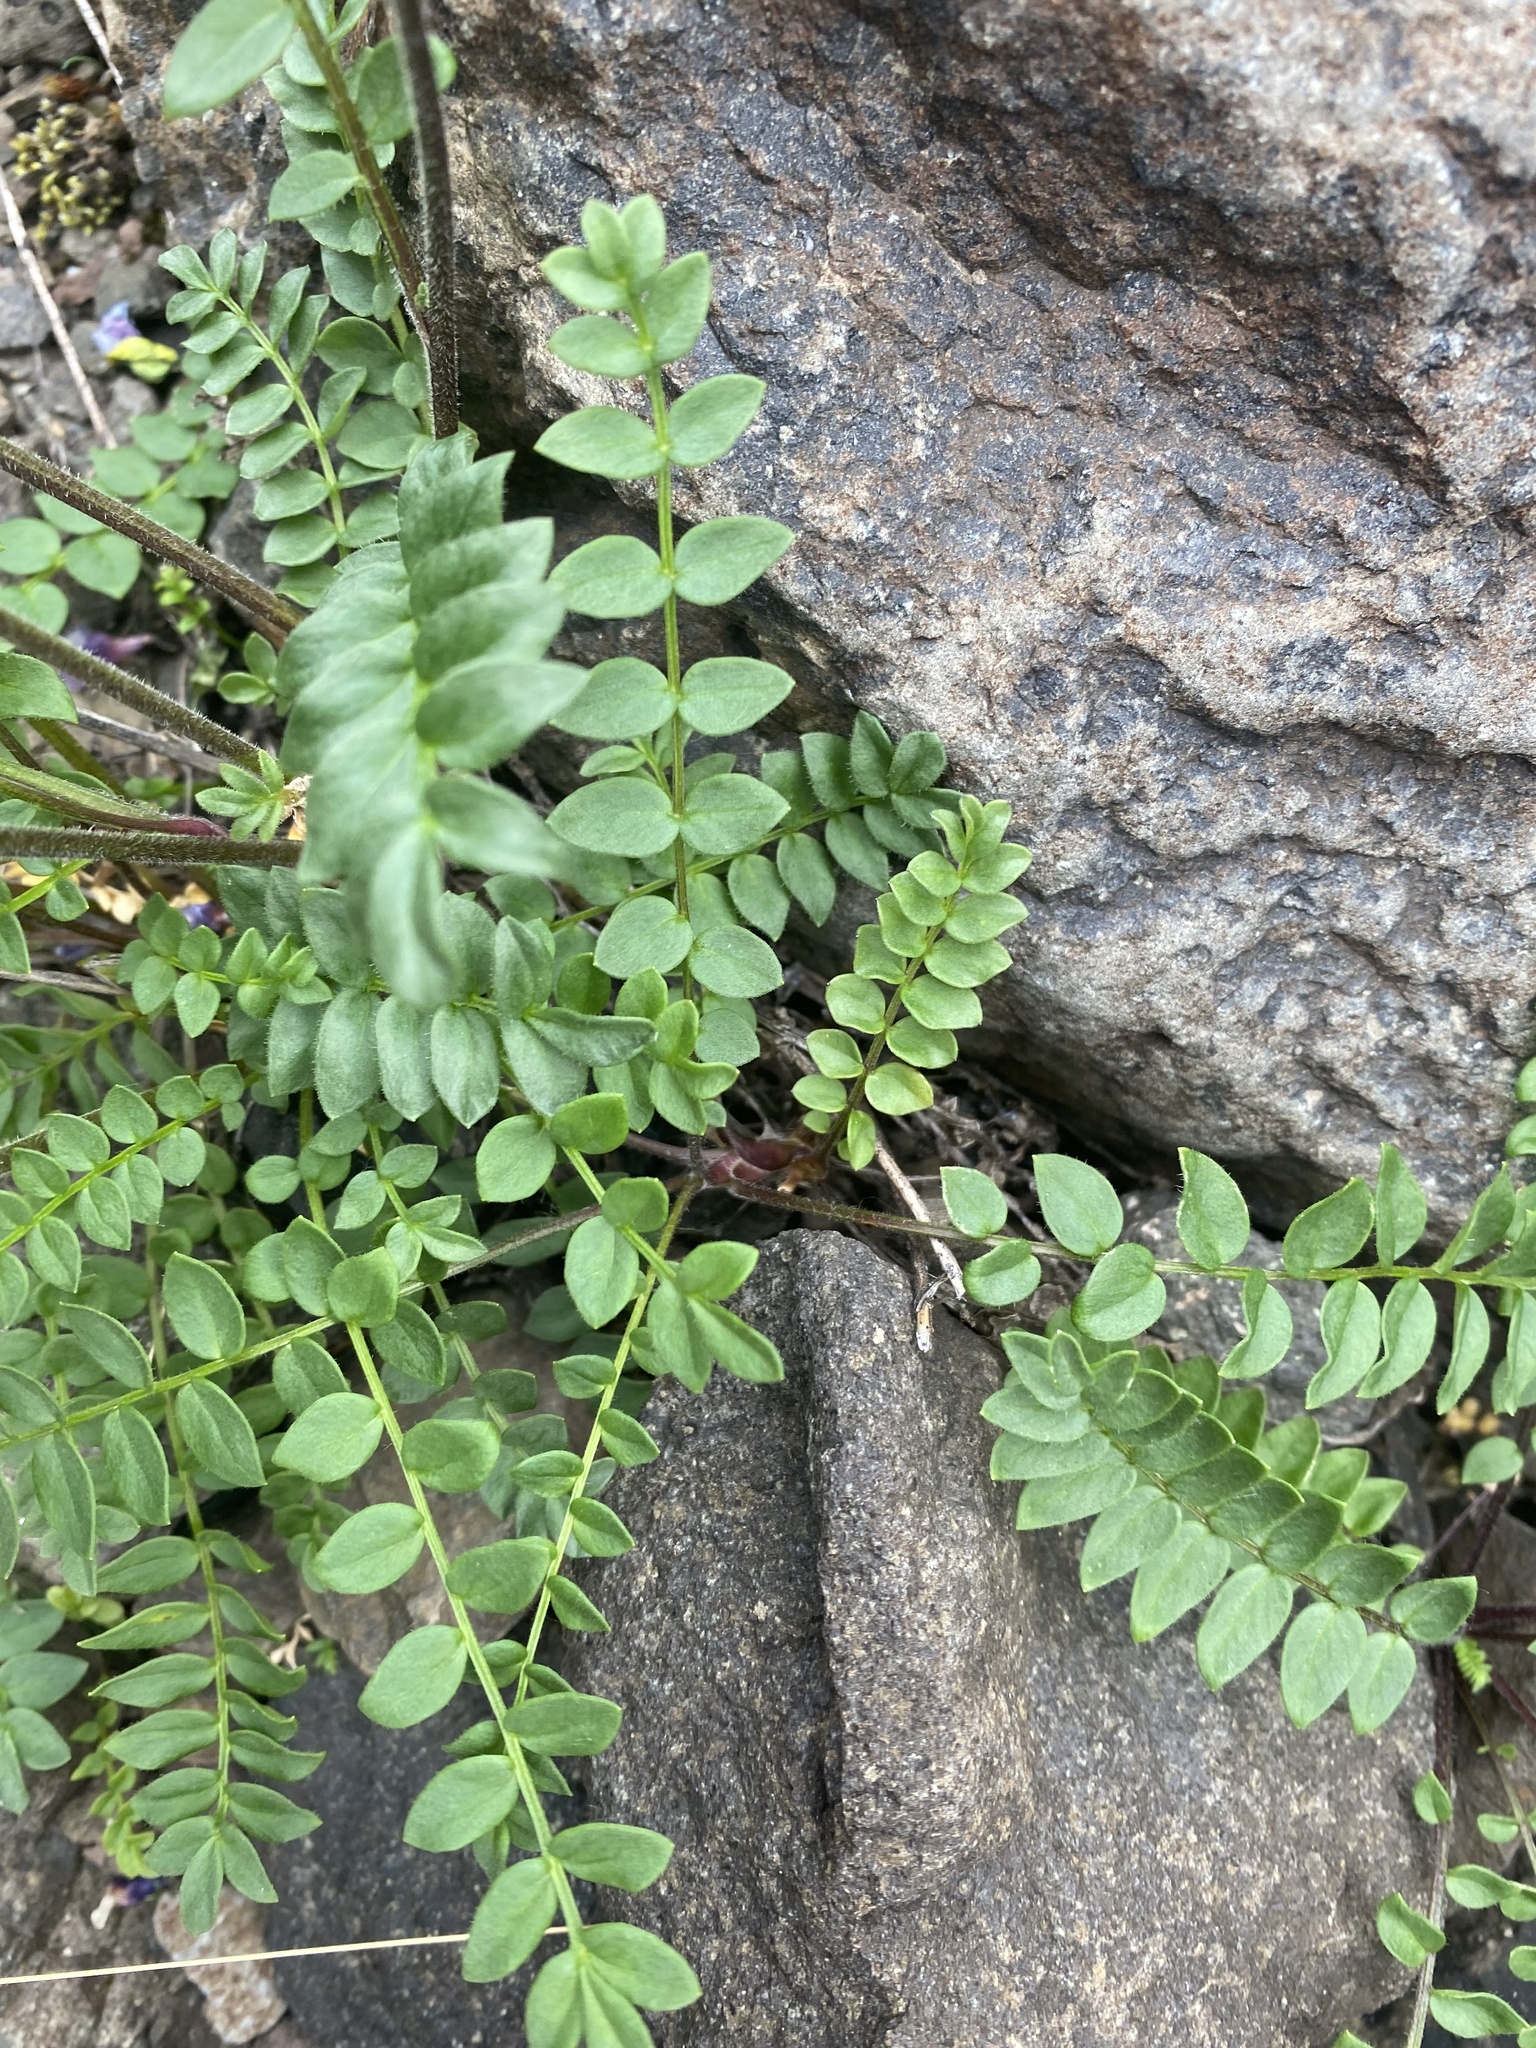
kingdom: Plantae
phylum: Tracheophyta
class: Magnoliopsida
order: Ericales
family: Polemoniaceae
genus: Polemonium
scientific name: Polemonium boreale
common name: Boreal jacob's-ladder
